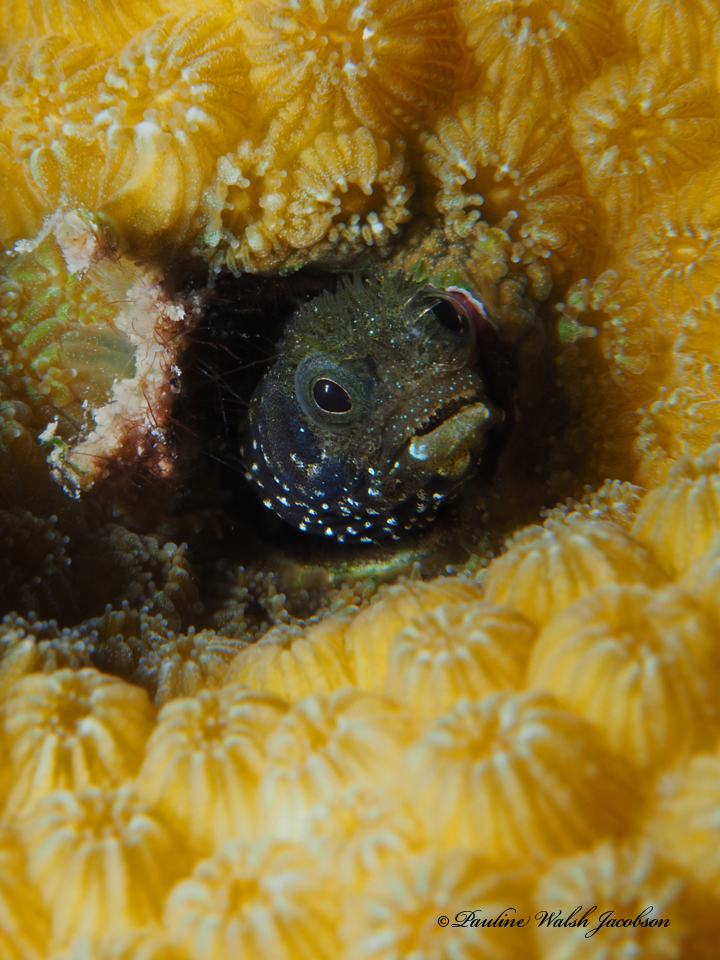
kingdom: Animalia
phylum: Chordata
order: Perciformes
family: Chaenopsidae
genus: Acanthemblemaria
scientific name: Acanthemblemaria spinosa
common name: Spinyhead blenny
